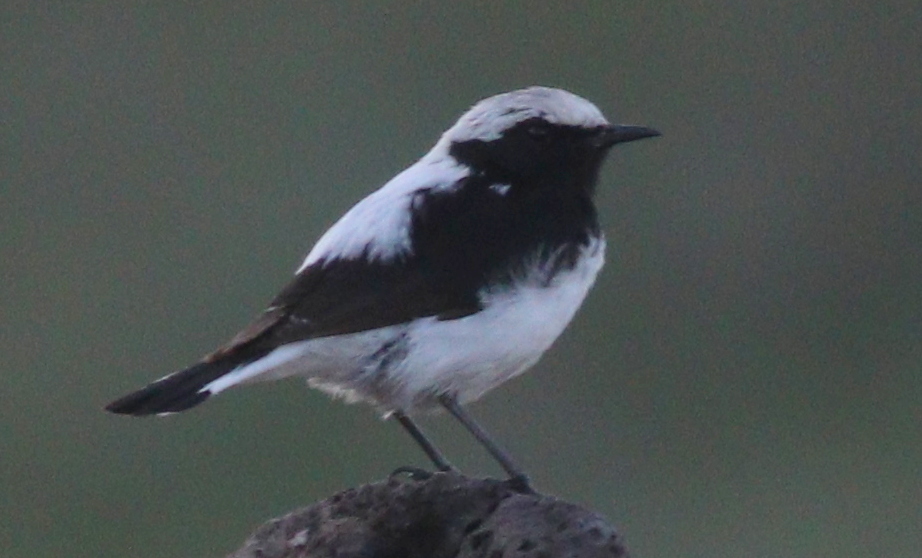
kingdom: Animalia
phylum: Chordata
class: Aves
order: Passeriformes
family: Muscicapidae
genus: Oenanthe
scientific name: Oenanthe finschii
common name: Finsch's wheatear
